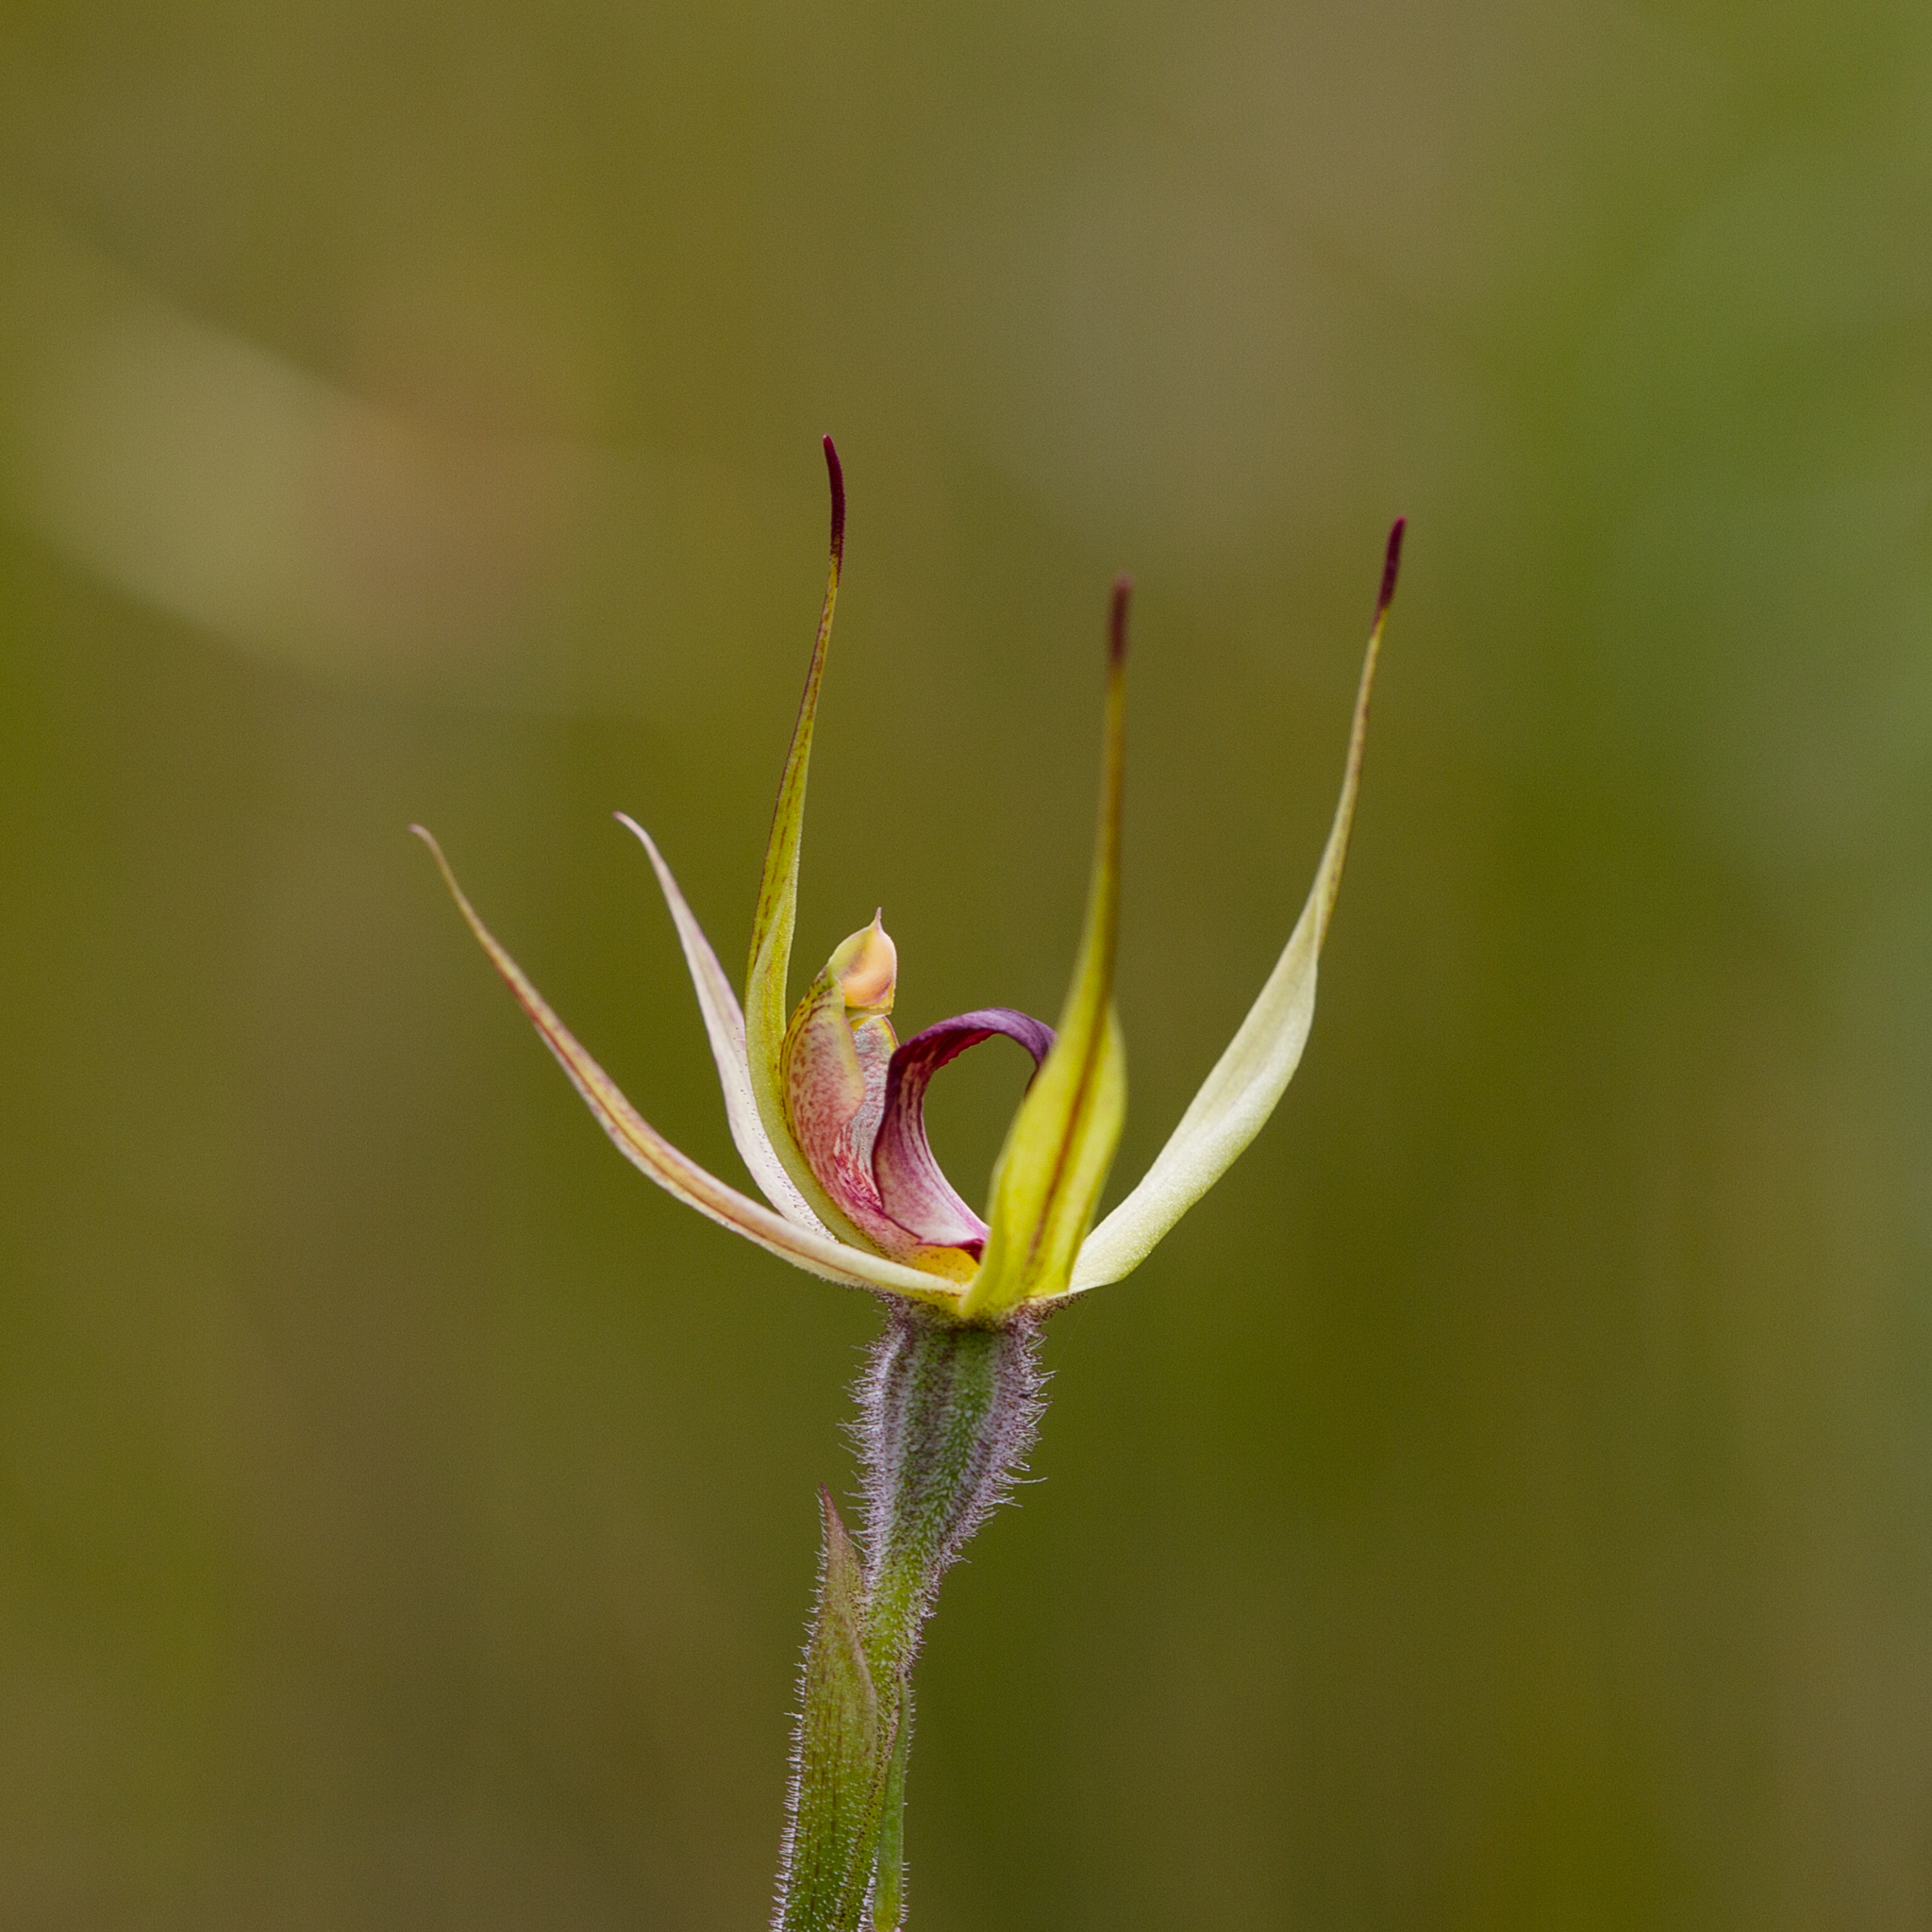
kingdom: Plantae
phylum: Tracheophyta
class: Liliopsida
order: Asparagales
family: Orchidaceae
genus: Caladenia
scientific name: Caladenia leptochila
